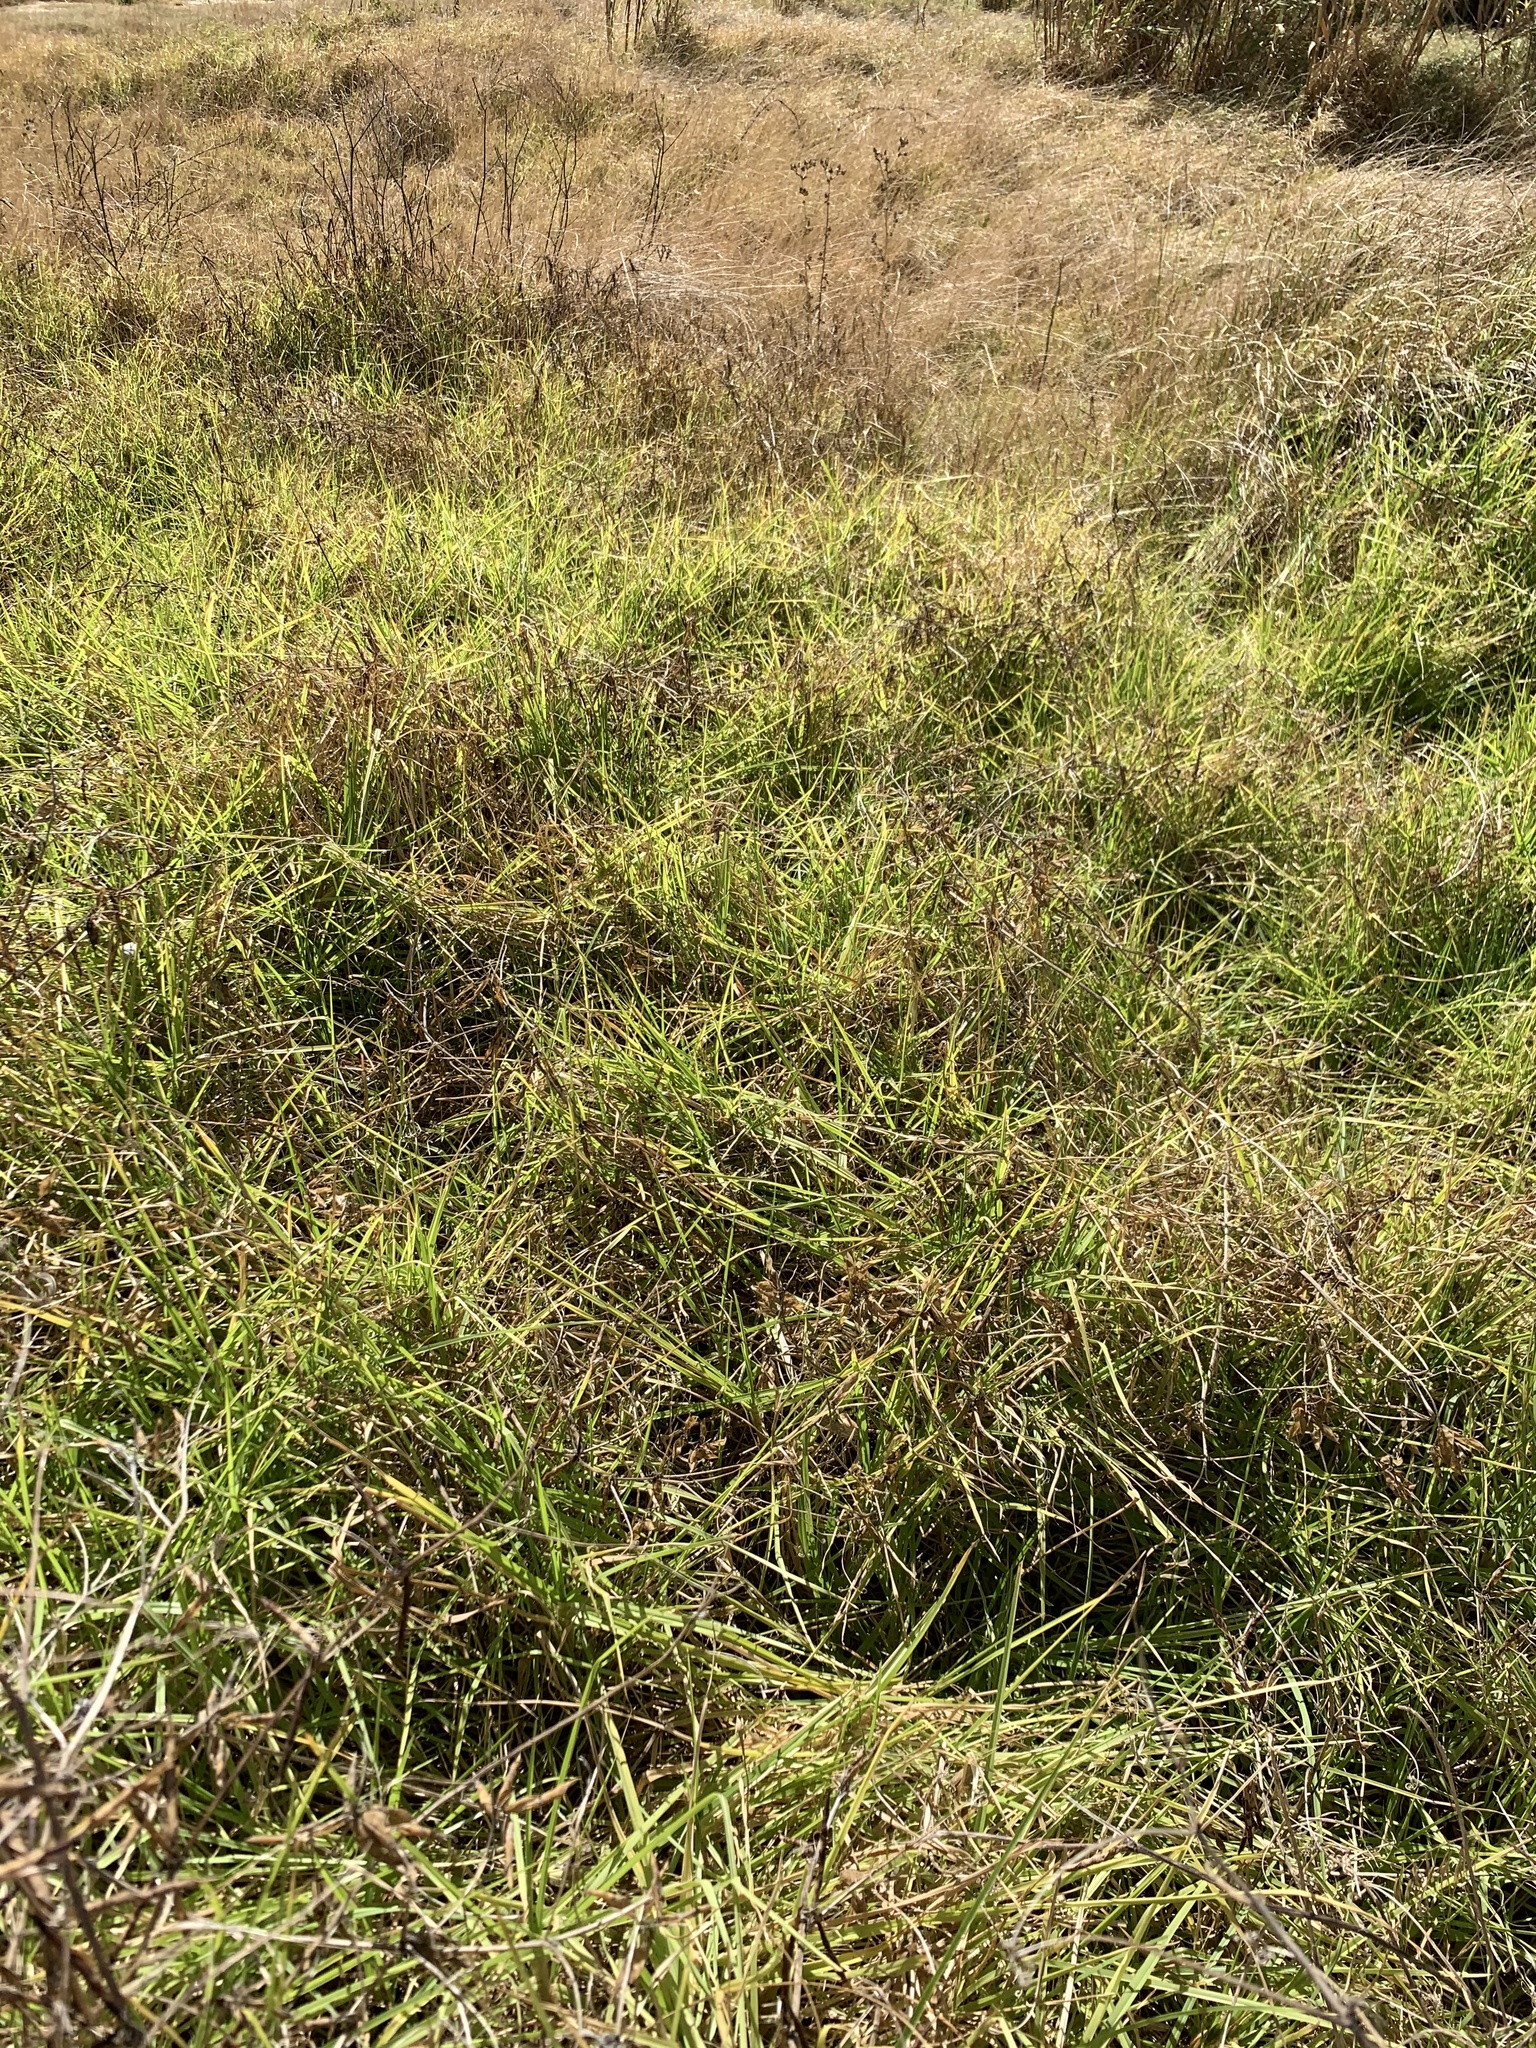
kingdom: Plantae
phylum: Tracheophyta
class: Liliopsida
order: Poales
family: Poaceae
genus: Cenchrus
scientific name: Cenchrus clandestinus
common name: Kikuyugrass
